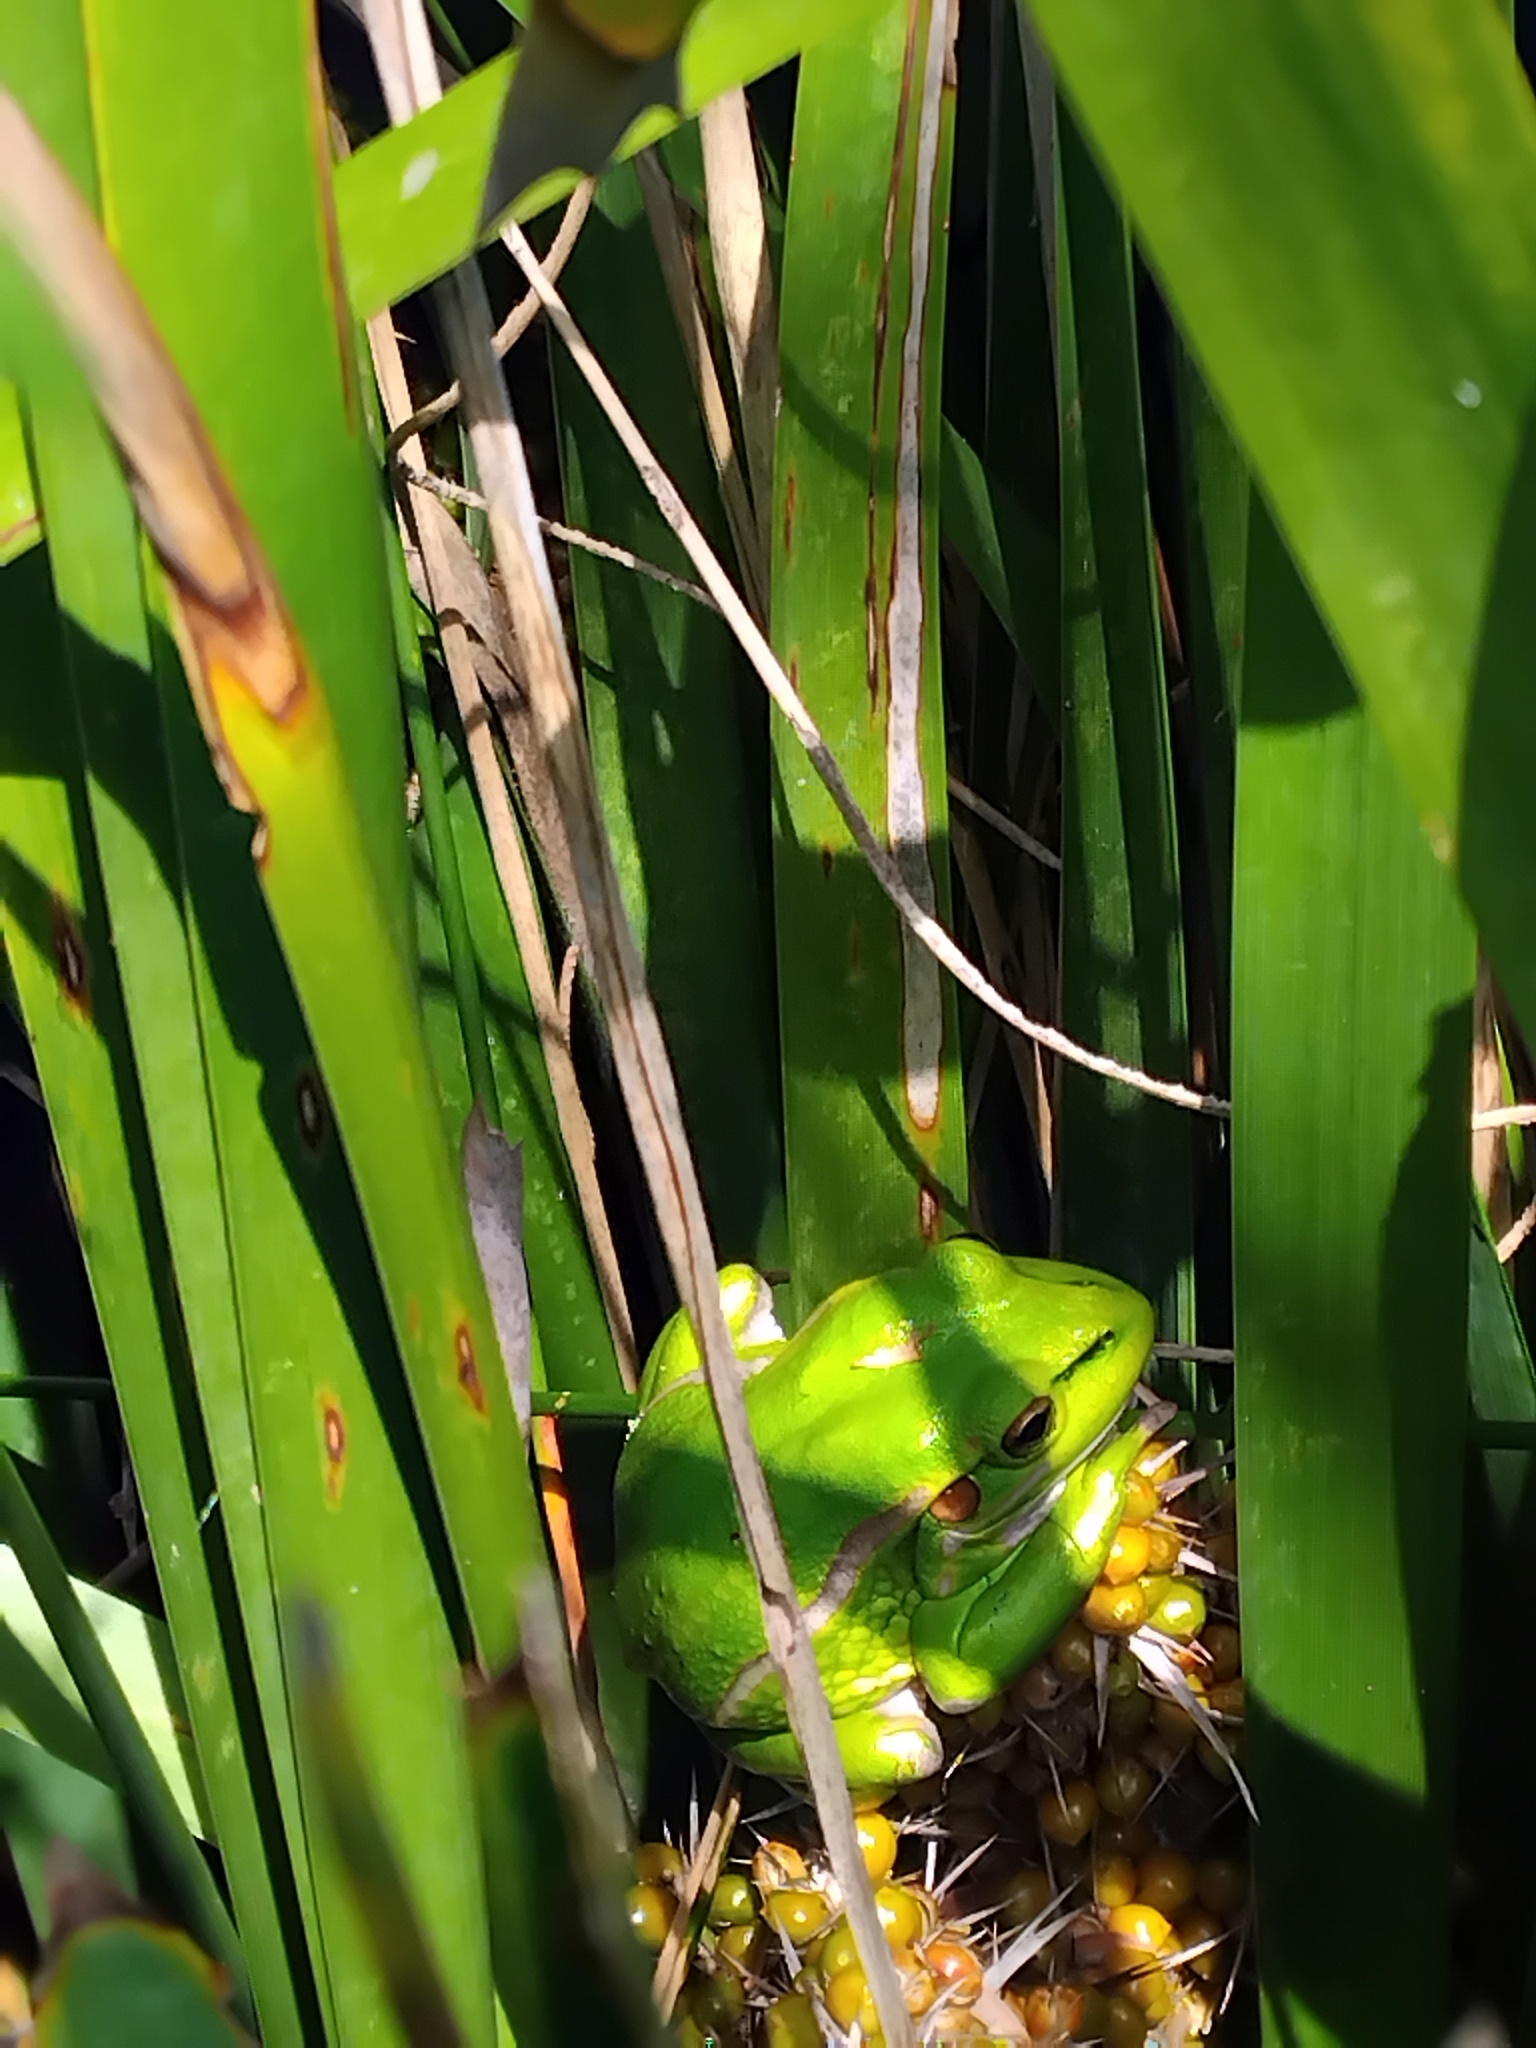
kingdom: Animalia
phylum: Chordata
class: Amphibia
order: Anura
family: Pelodryadidae
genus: Ranoidea
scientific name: Ranoidea aurea
